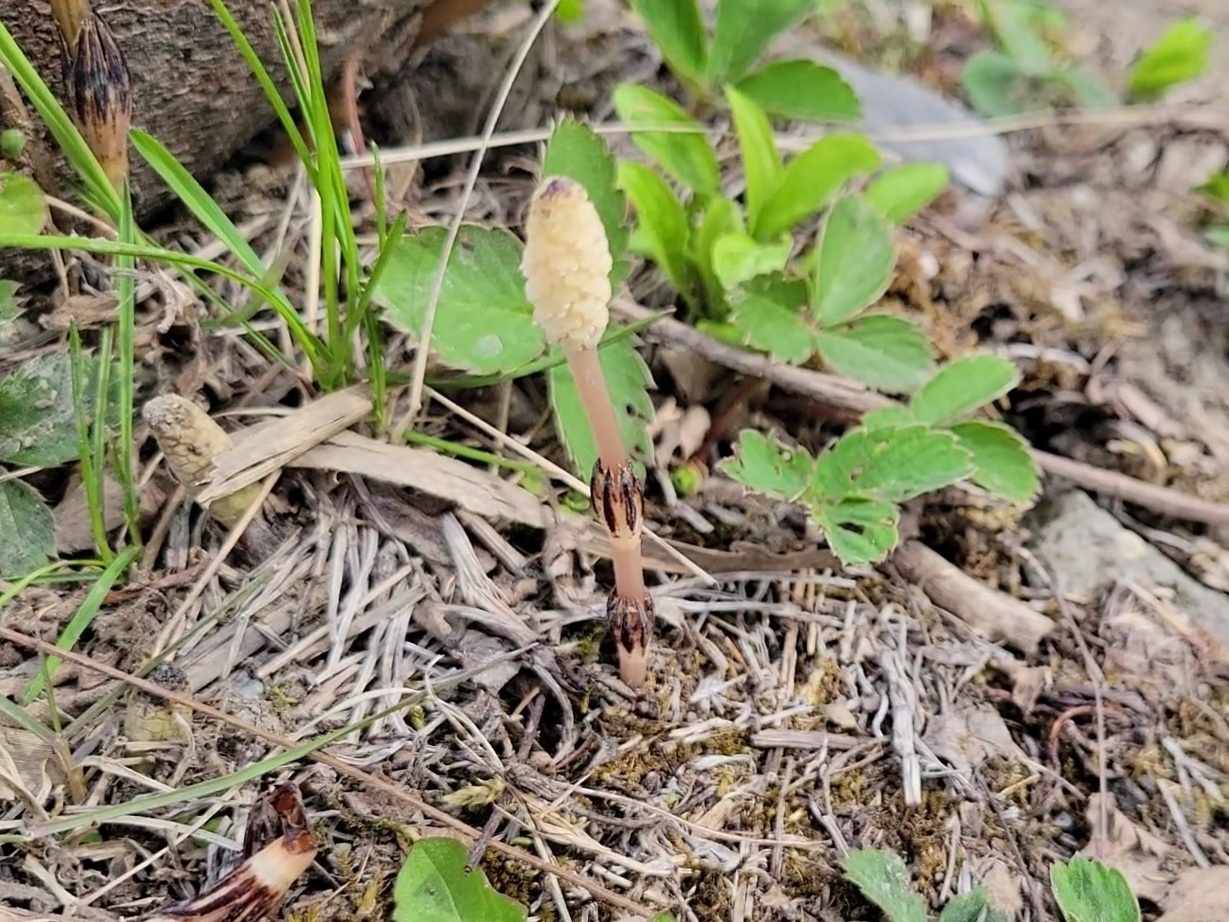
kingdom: Plantae
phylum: Tracheophyta
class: Polypodiopsida
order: Equisetales
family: Equisetaceae
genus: Equisetum
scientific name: Equisetum arvense
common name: Field horsetail
